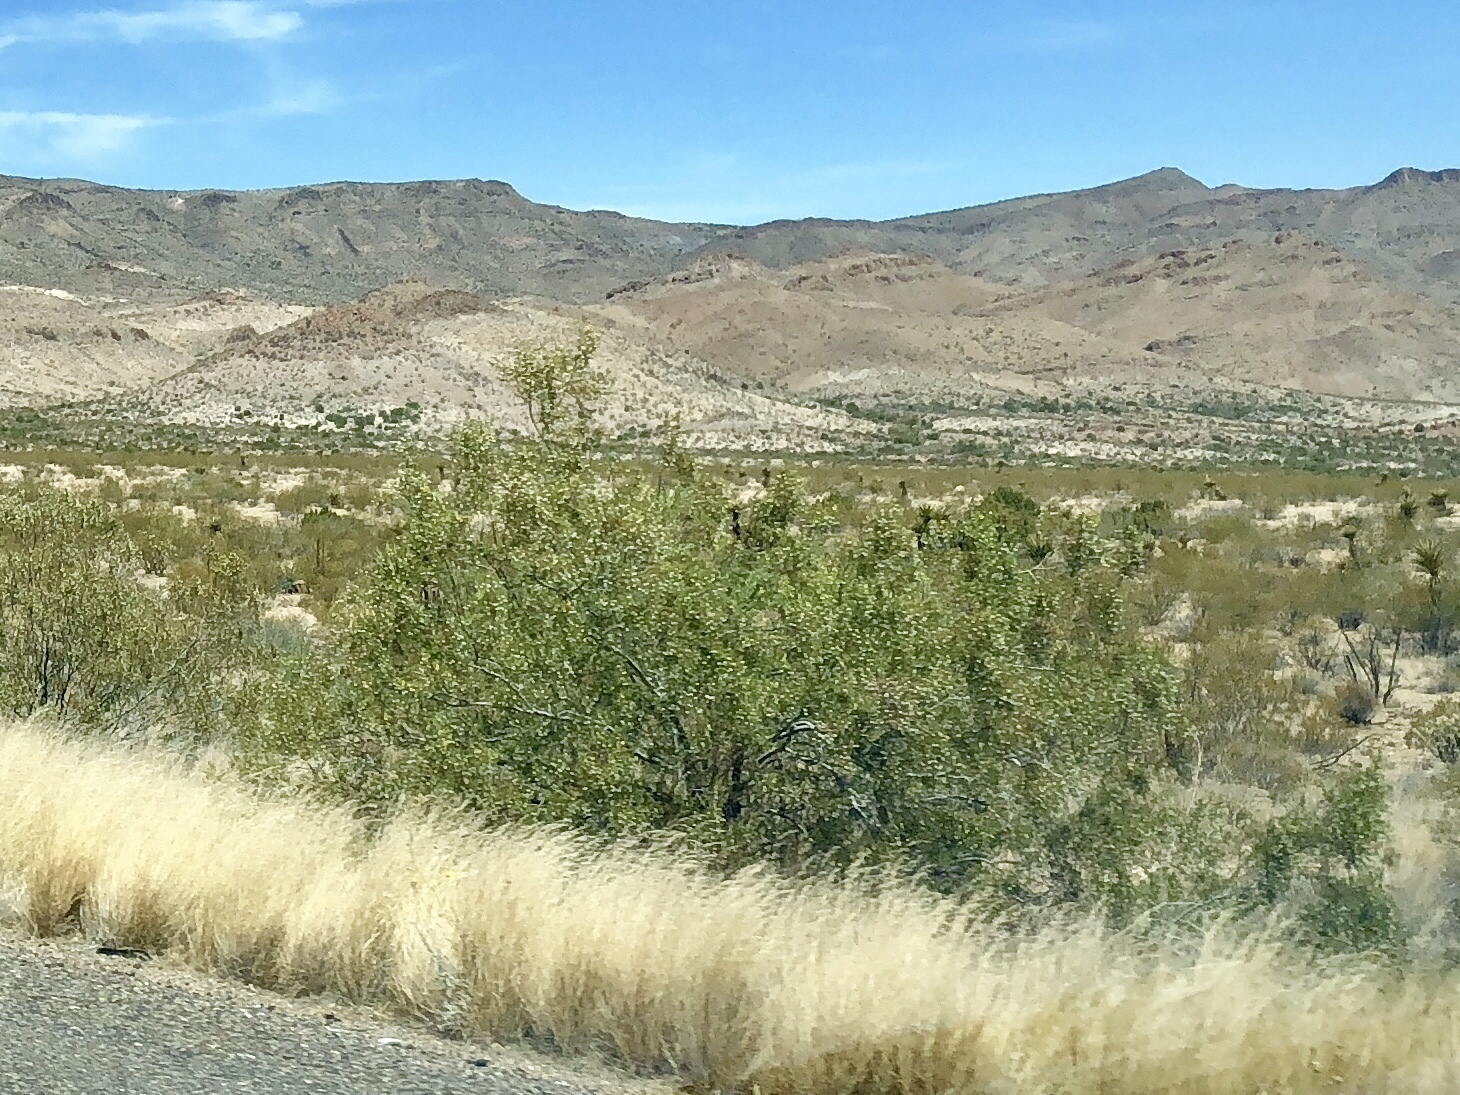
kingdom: Plantae
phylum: Tracheophyta
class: Magnoliopsida
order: Zygophyllales
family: Zygophyllaceae
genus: Larrea
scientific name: Larrea tridentata
